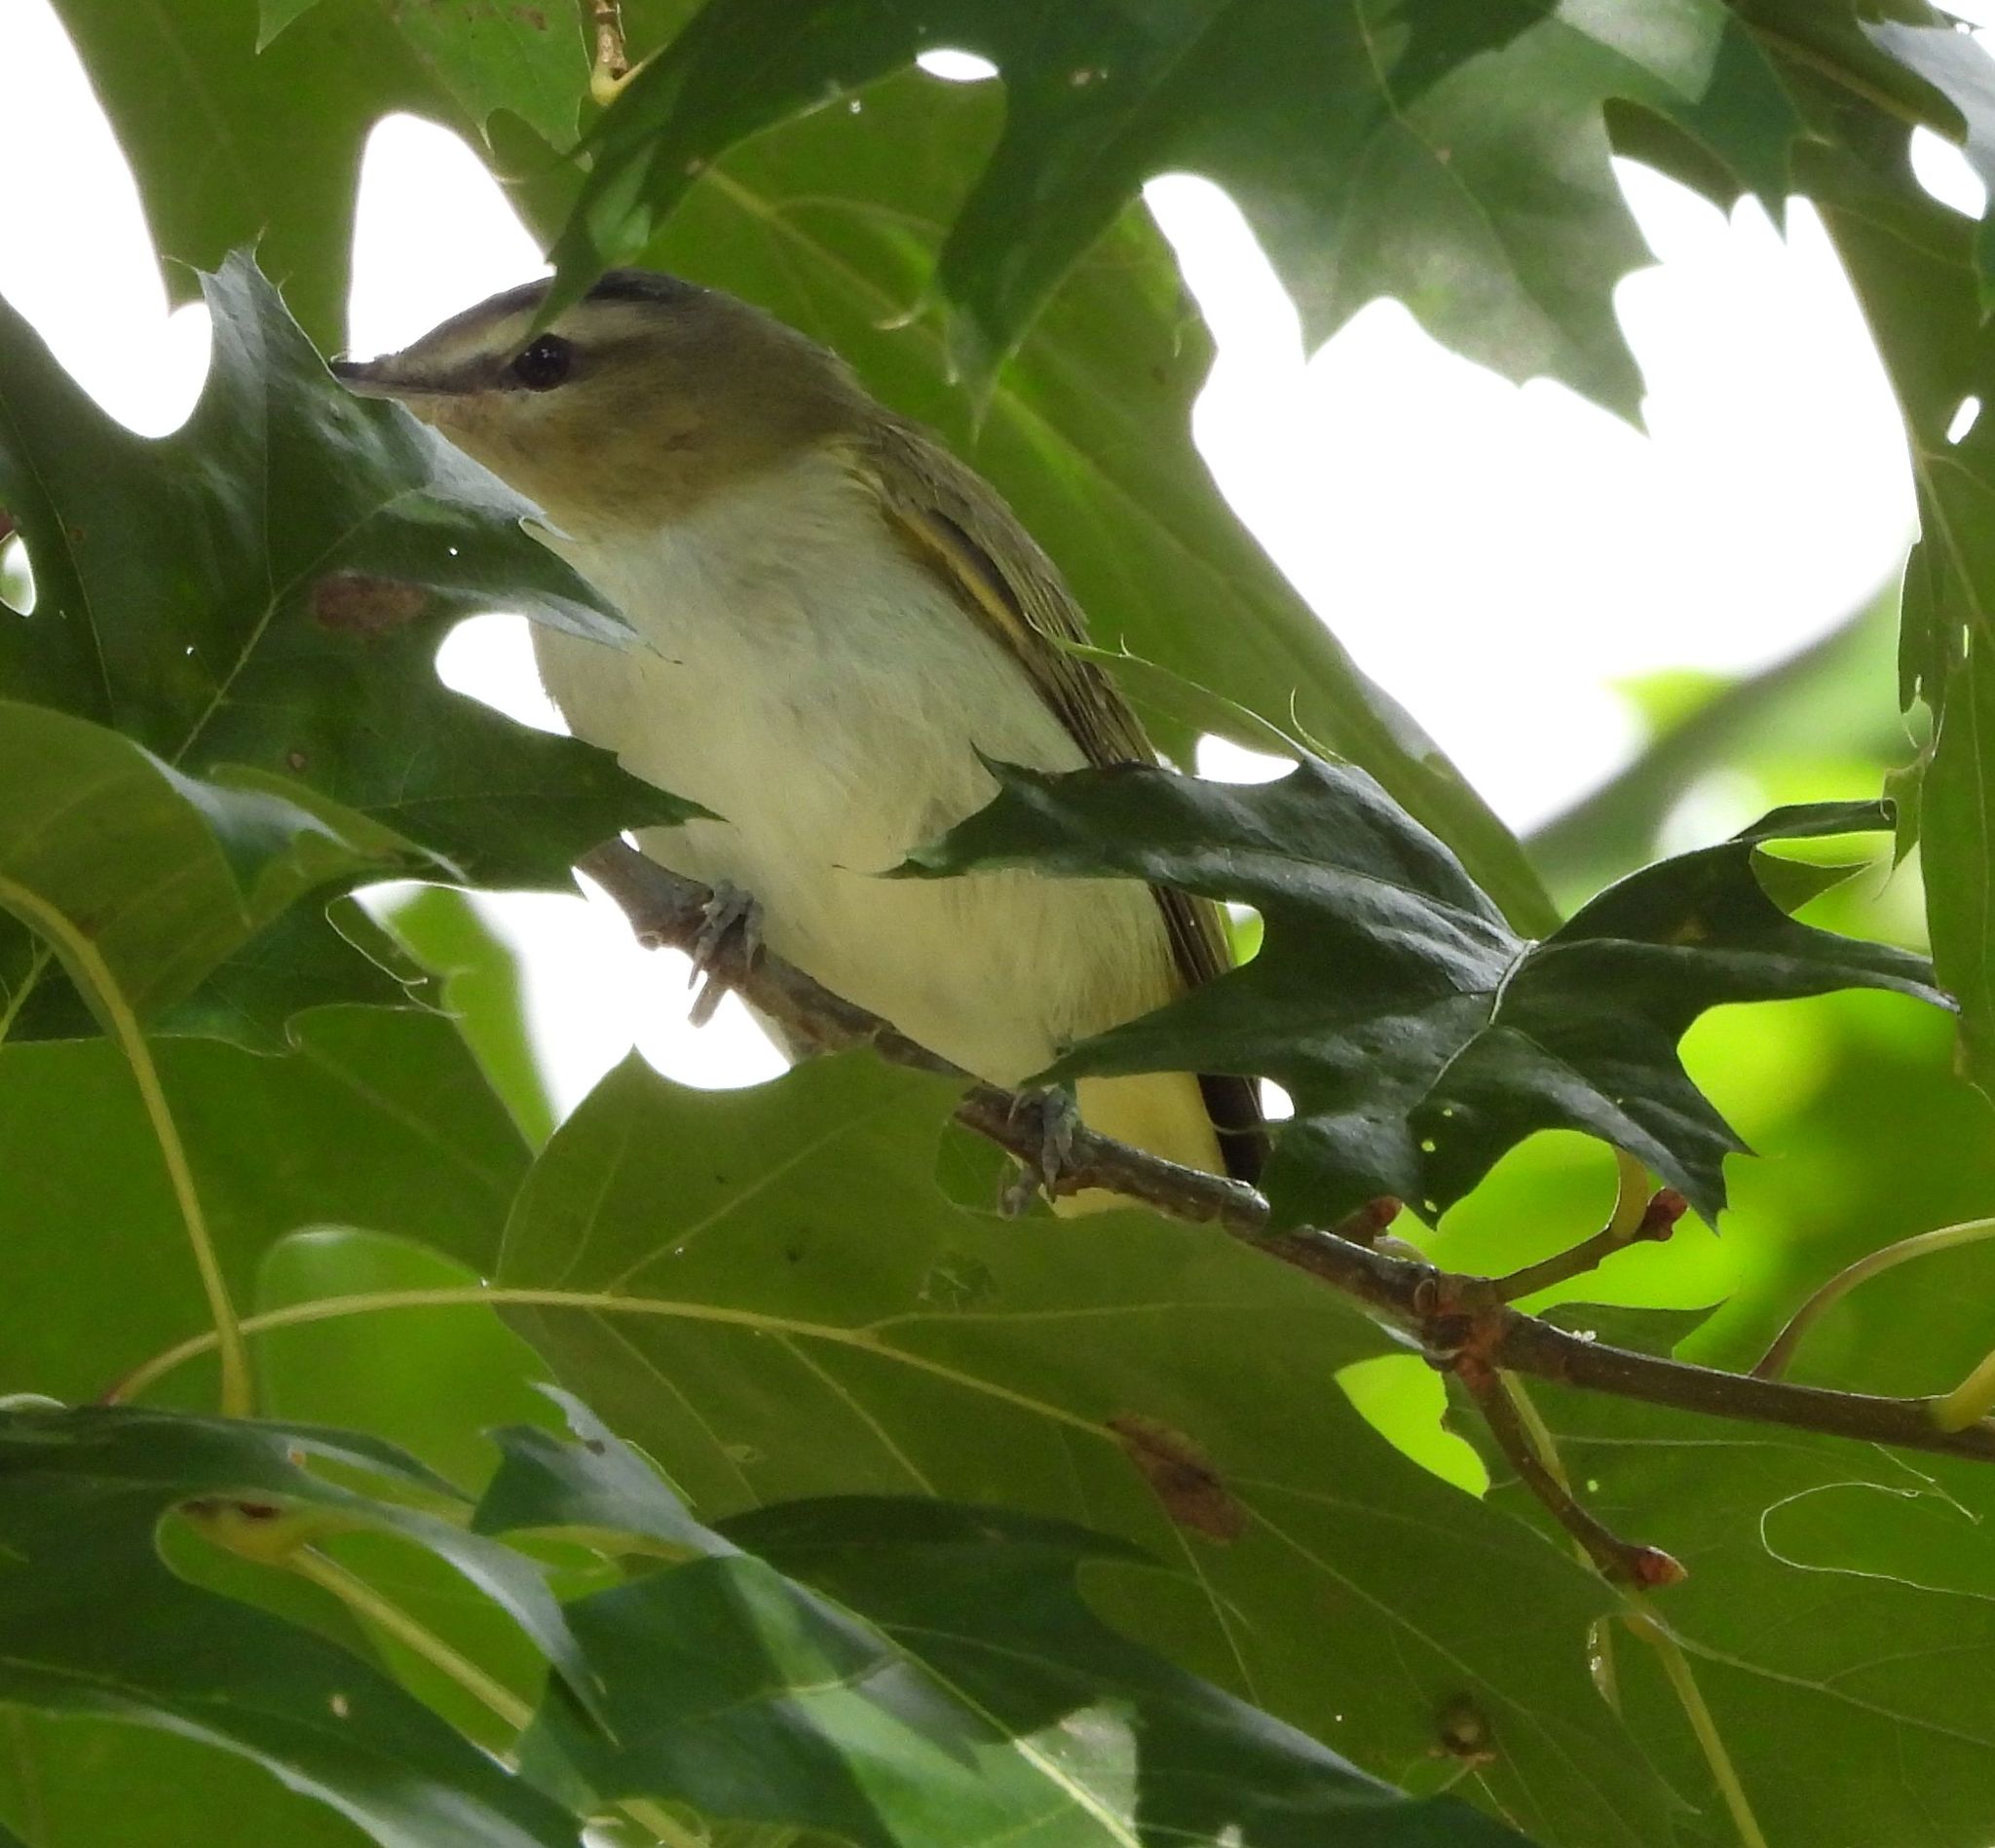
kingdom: Animalia
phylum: Chordata
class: Aves
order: Passeriformes
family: Vireonidae
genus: Vireo
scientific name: Vireo olivaceus
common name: Red-eyed vireo
